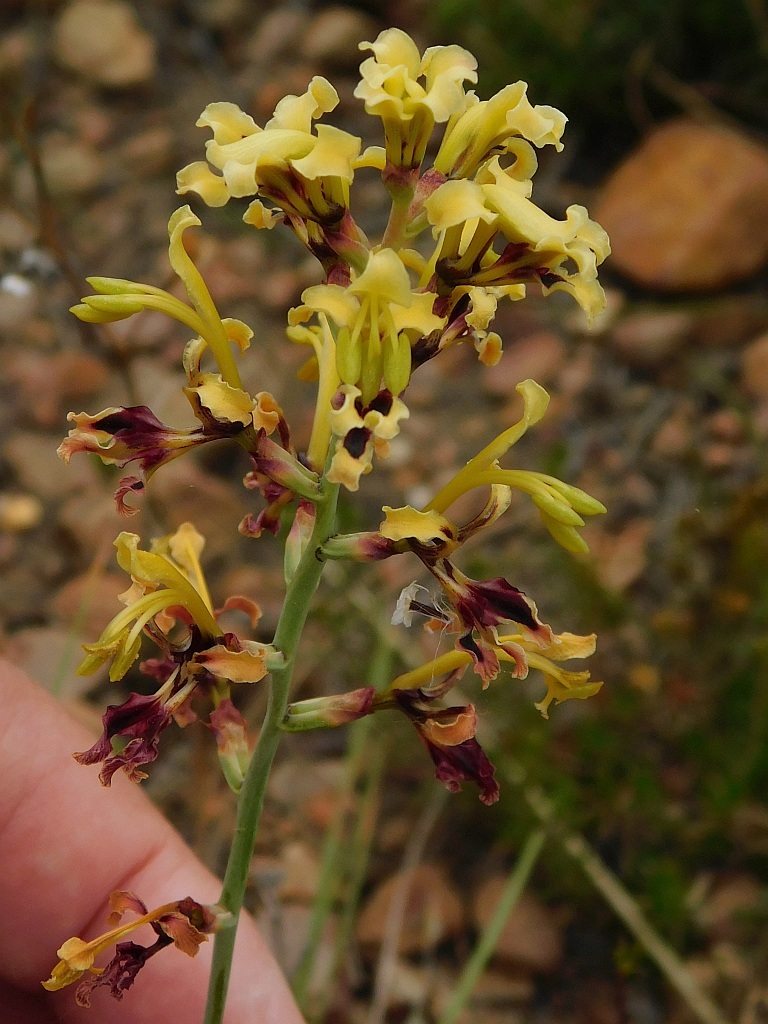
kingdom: Plantae
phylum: Tracheophyta
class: Liliopsida
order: Asparagales
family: Iridaceae
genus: Tritoniopsis
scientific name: Tritoniopsis parviflora
